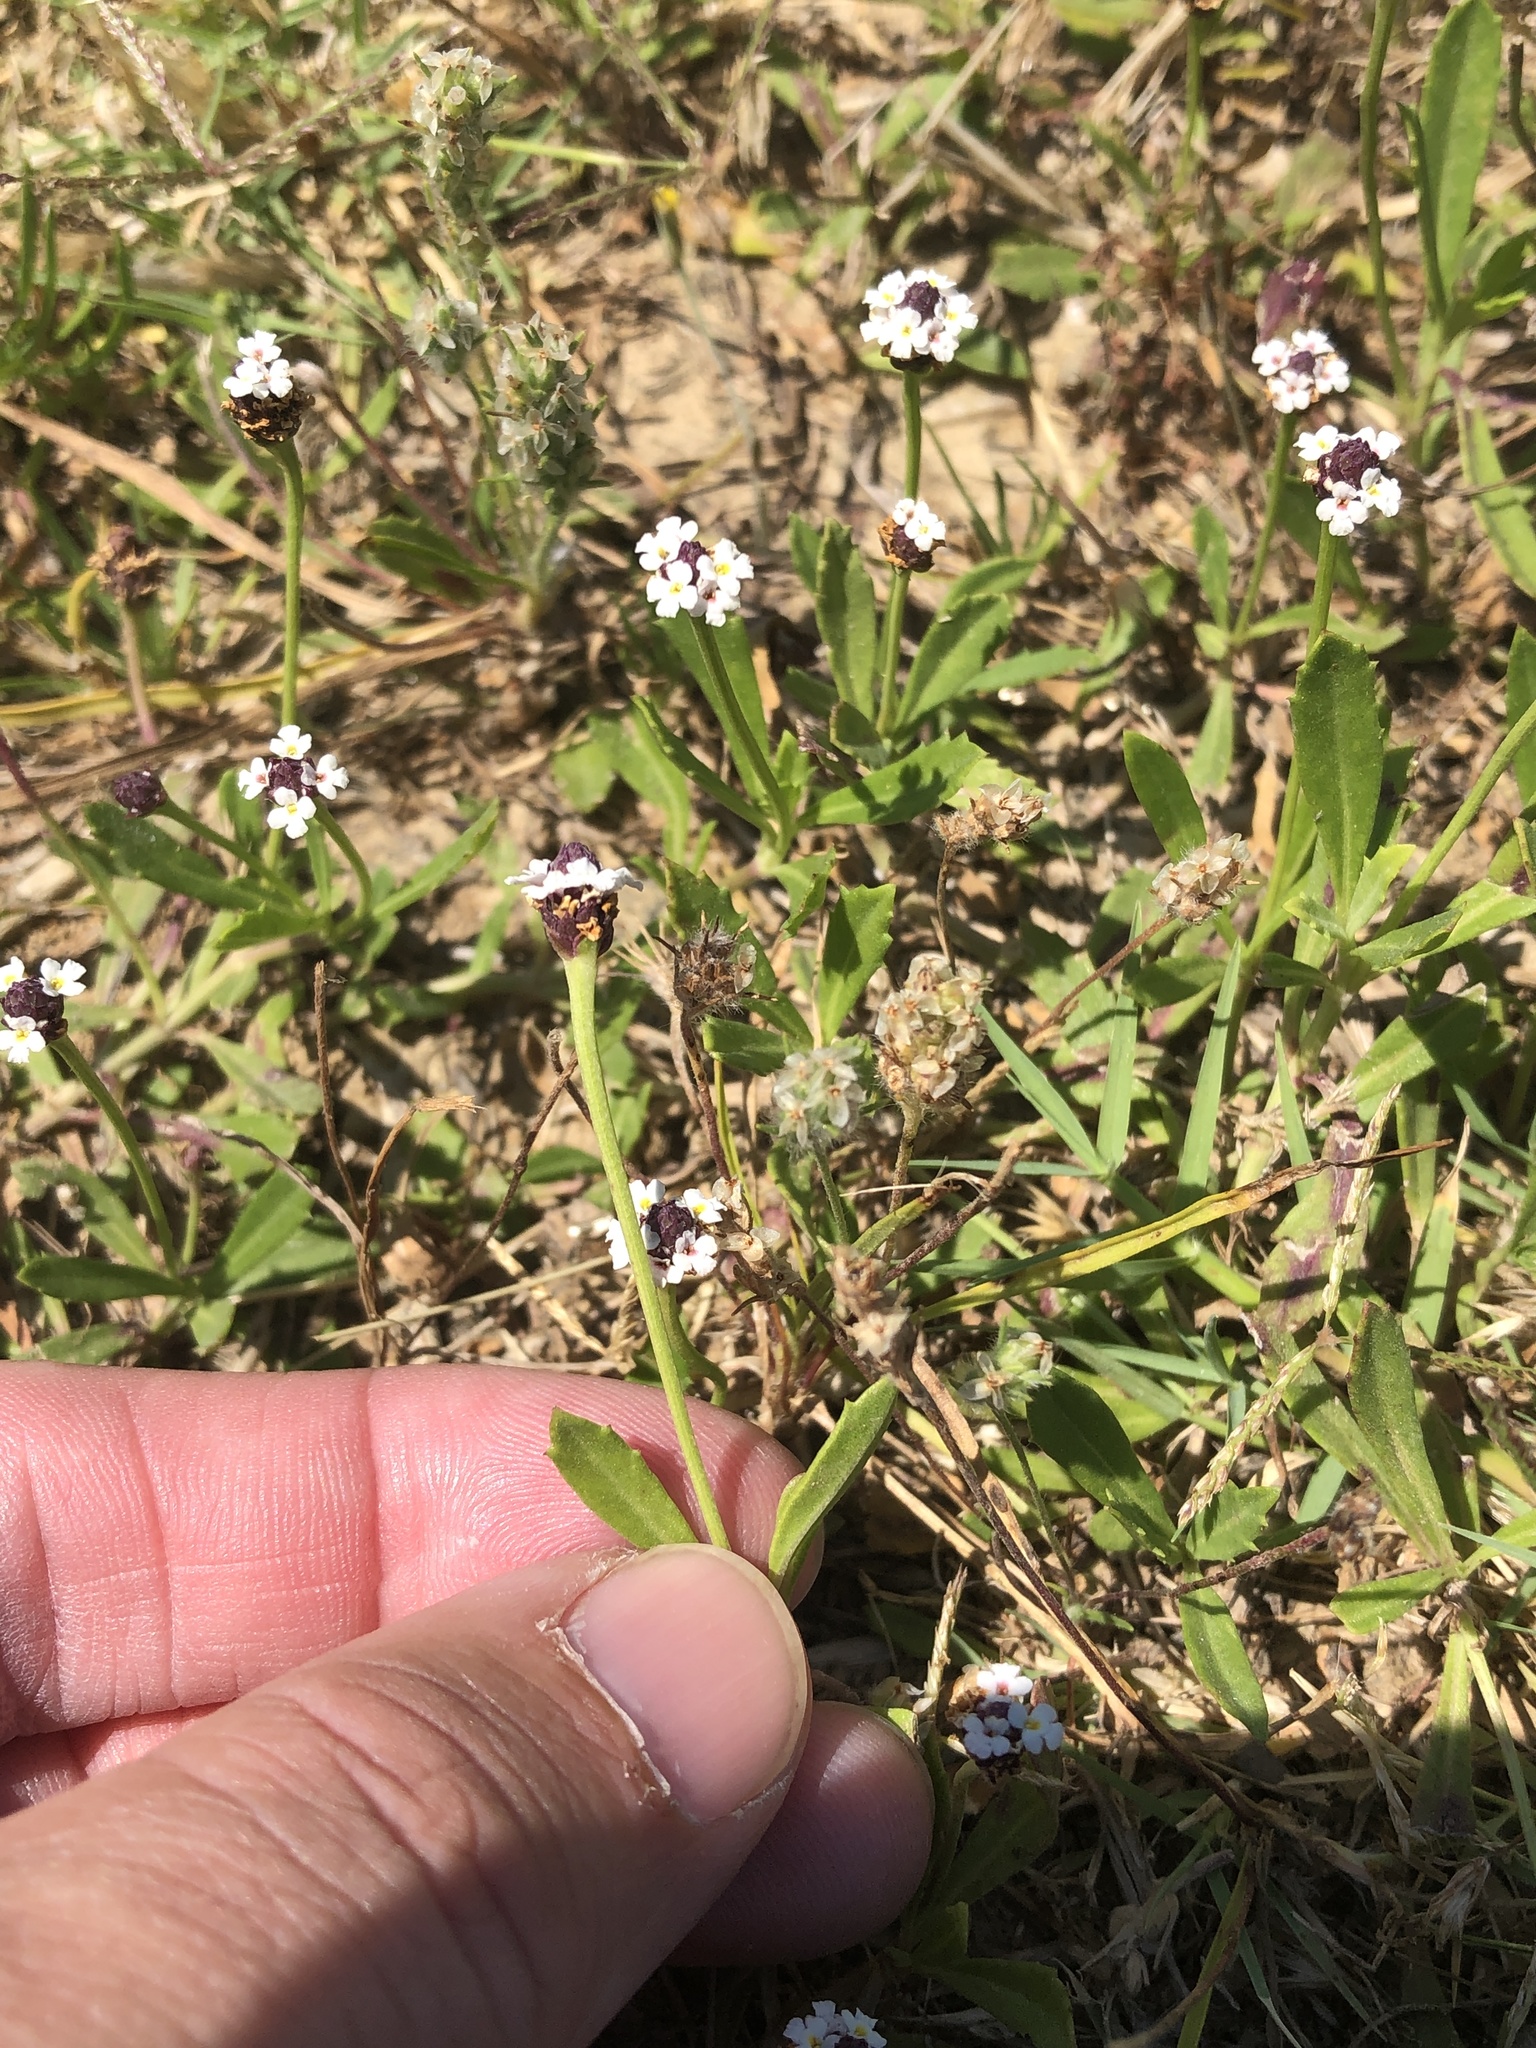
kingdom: Plantae
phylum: Tracheophyta
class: Magnoliopsida
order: Lamiales
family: Verbenaceae
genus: Phyla
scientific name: Phyla nodiflora
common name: Frogfruit
